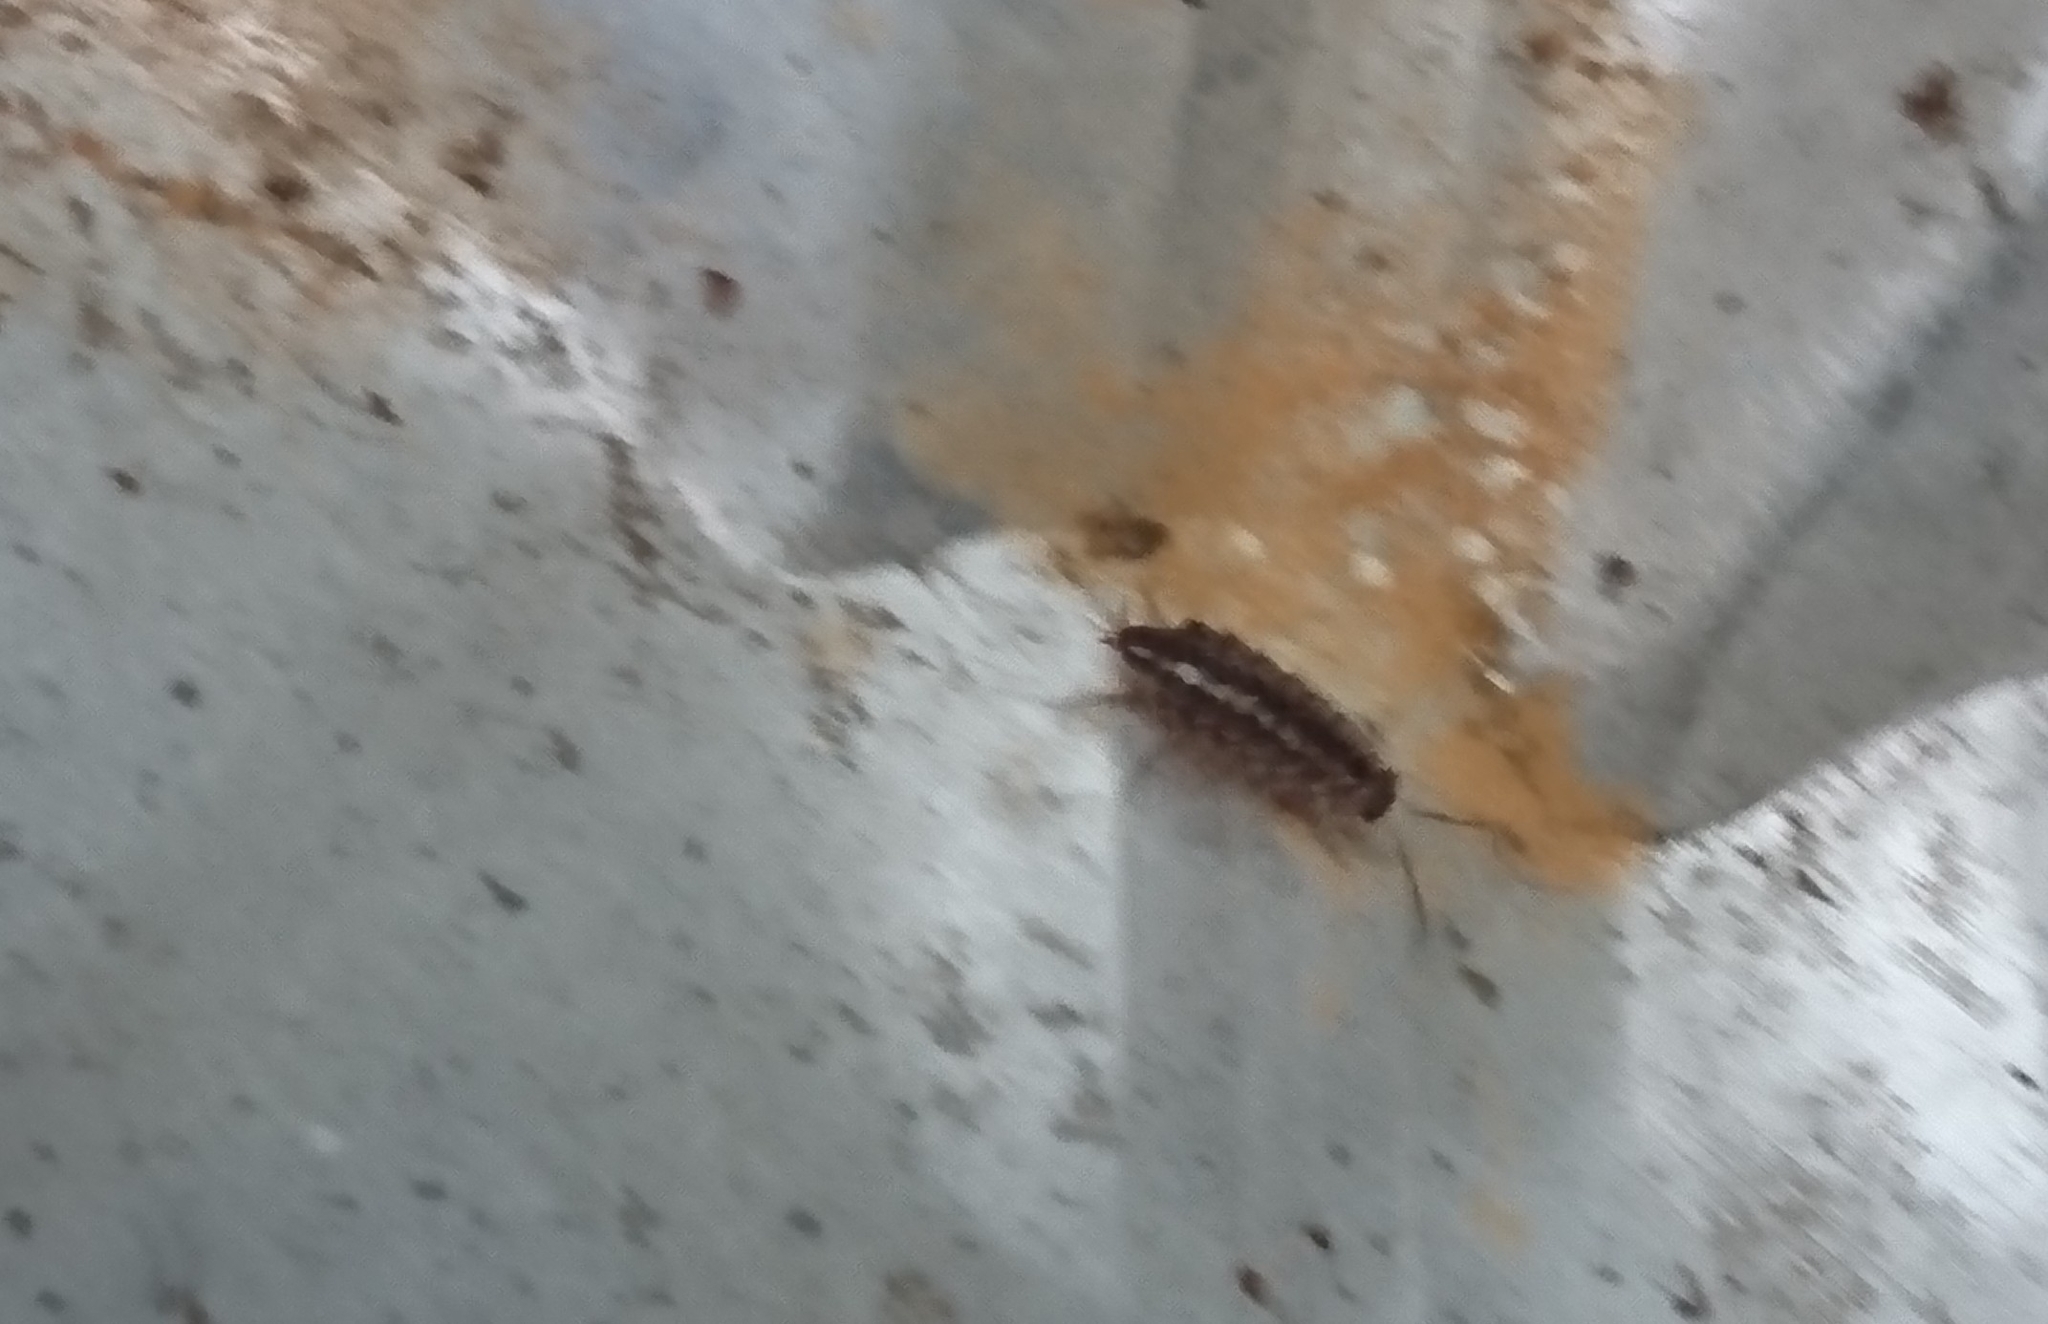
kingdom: Animalia
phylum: Arthropoda
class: Malacostraca
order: Isopoda
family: Philosciidae
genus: Philoscia
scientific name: Philoscia muscorum
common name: Common striped woodlouse
